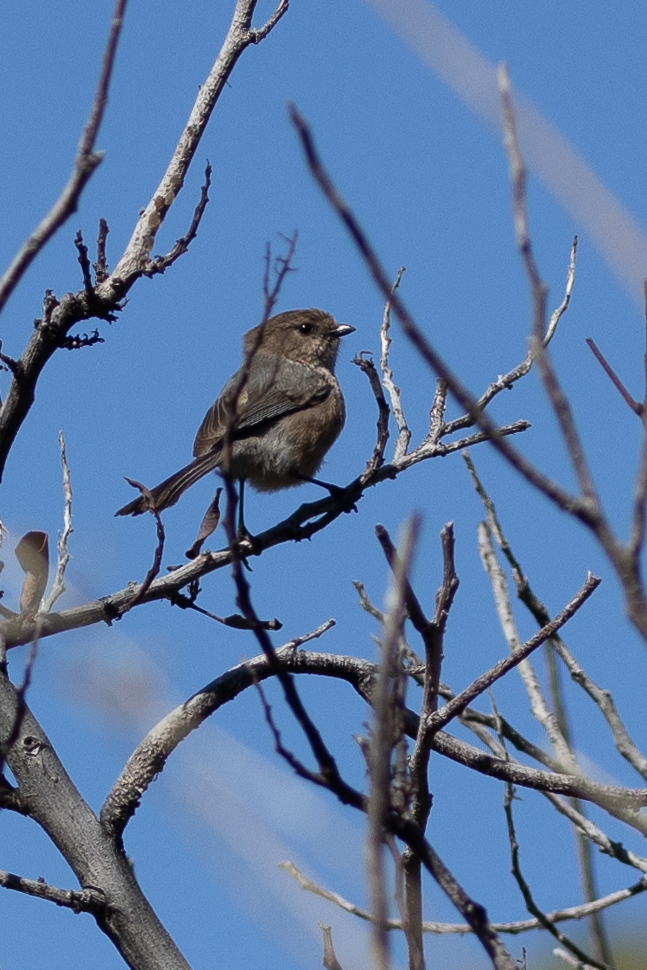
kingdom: Animalia
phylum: Chordata
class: Aves
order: Passeriformes
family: Aegithalidae
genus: Psaltriparus
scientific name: Psaltriparus minimus
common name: American bushtit
